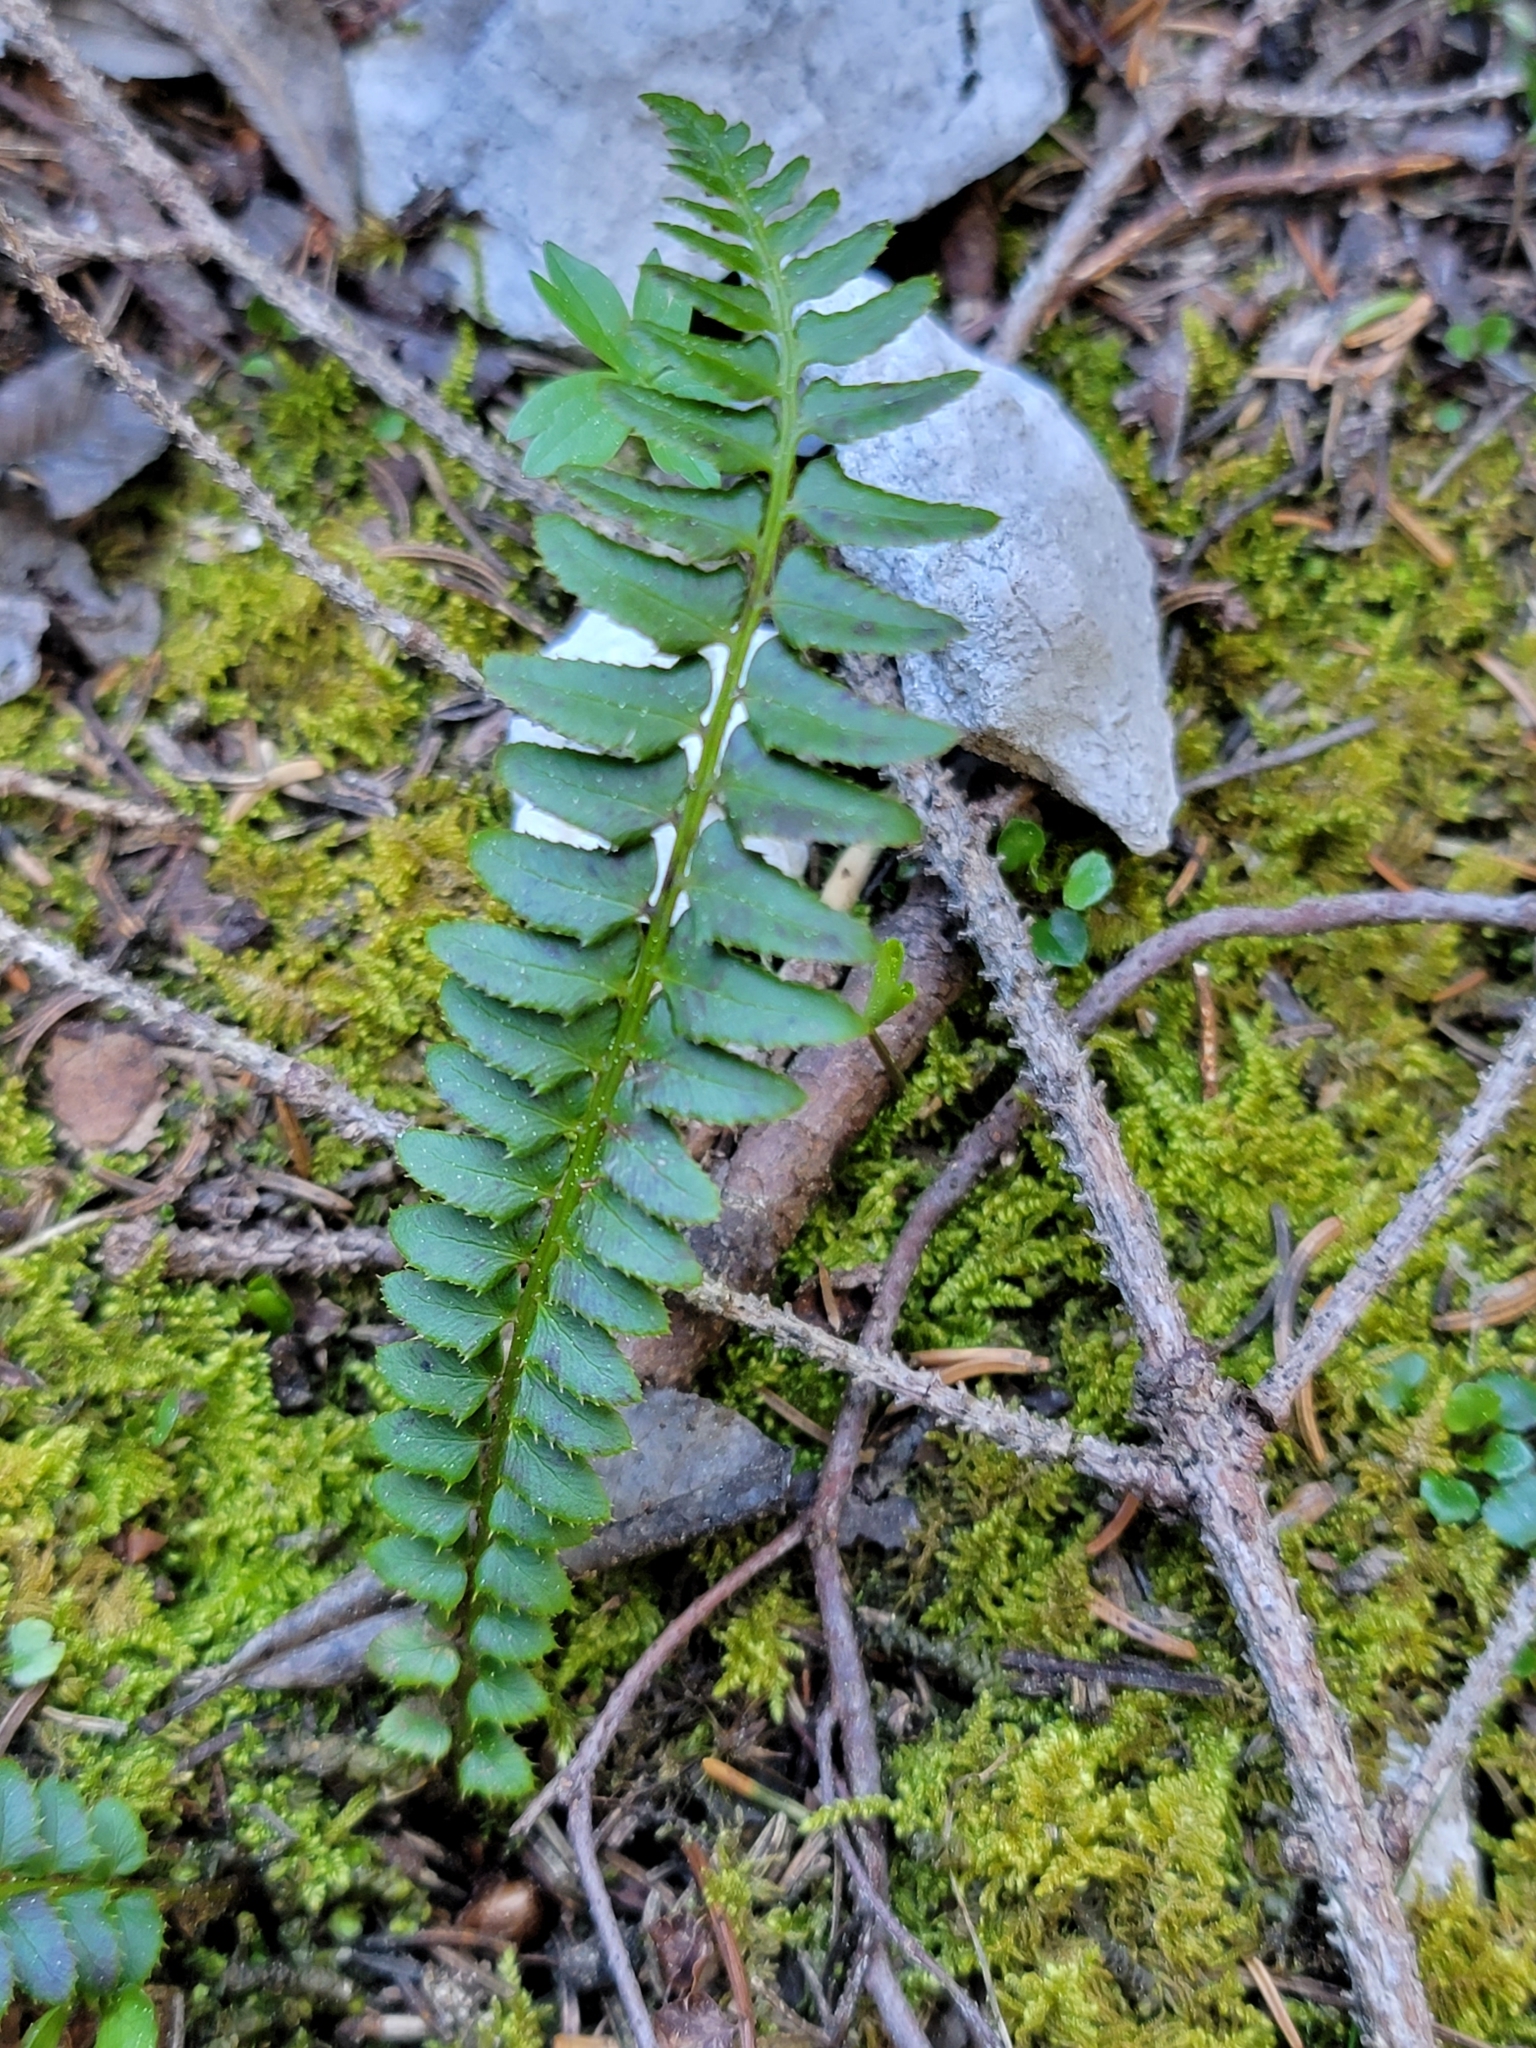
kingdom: Plantae
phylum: Tracheophyta
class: Polypodiopsida
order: Polypodiales
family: Dryopteridaceae
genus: Polystichum
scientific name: Polystichum lonchitis
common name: Holly fern
